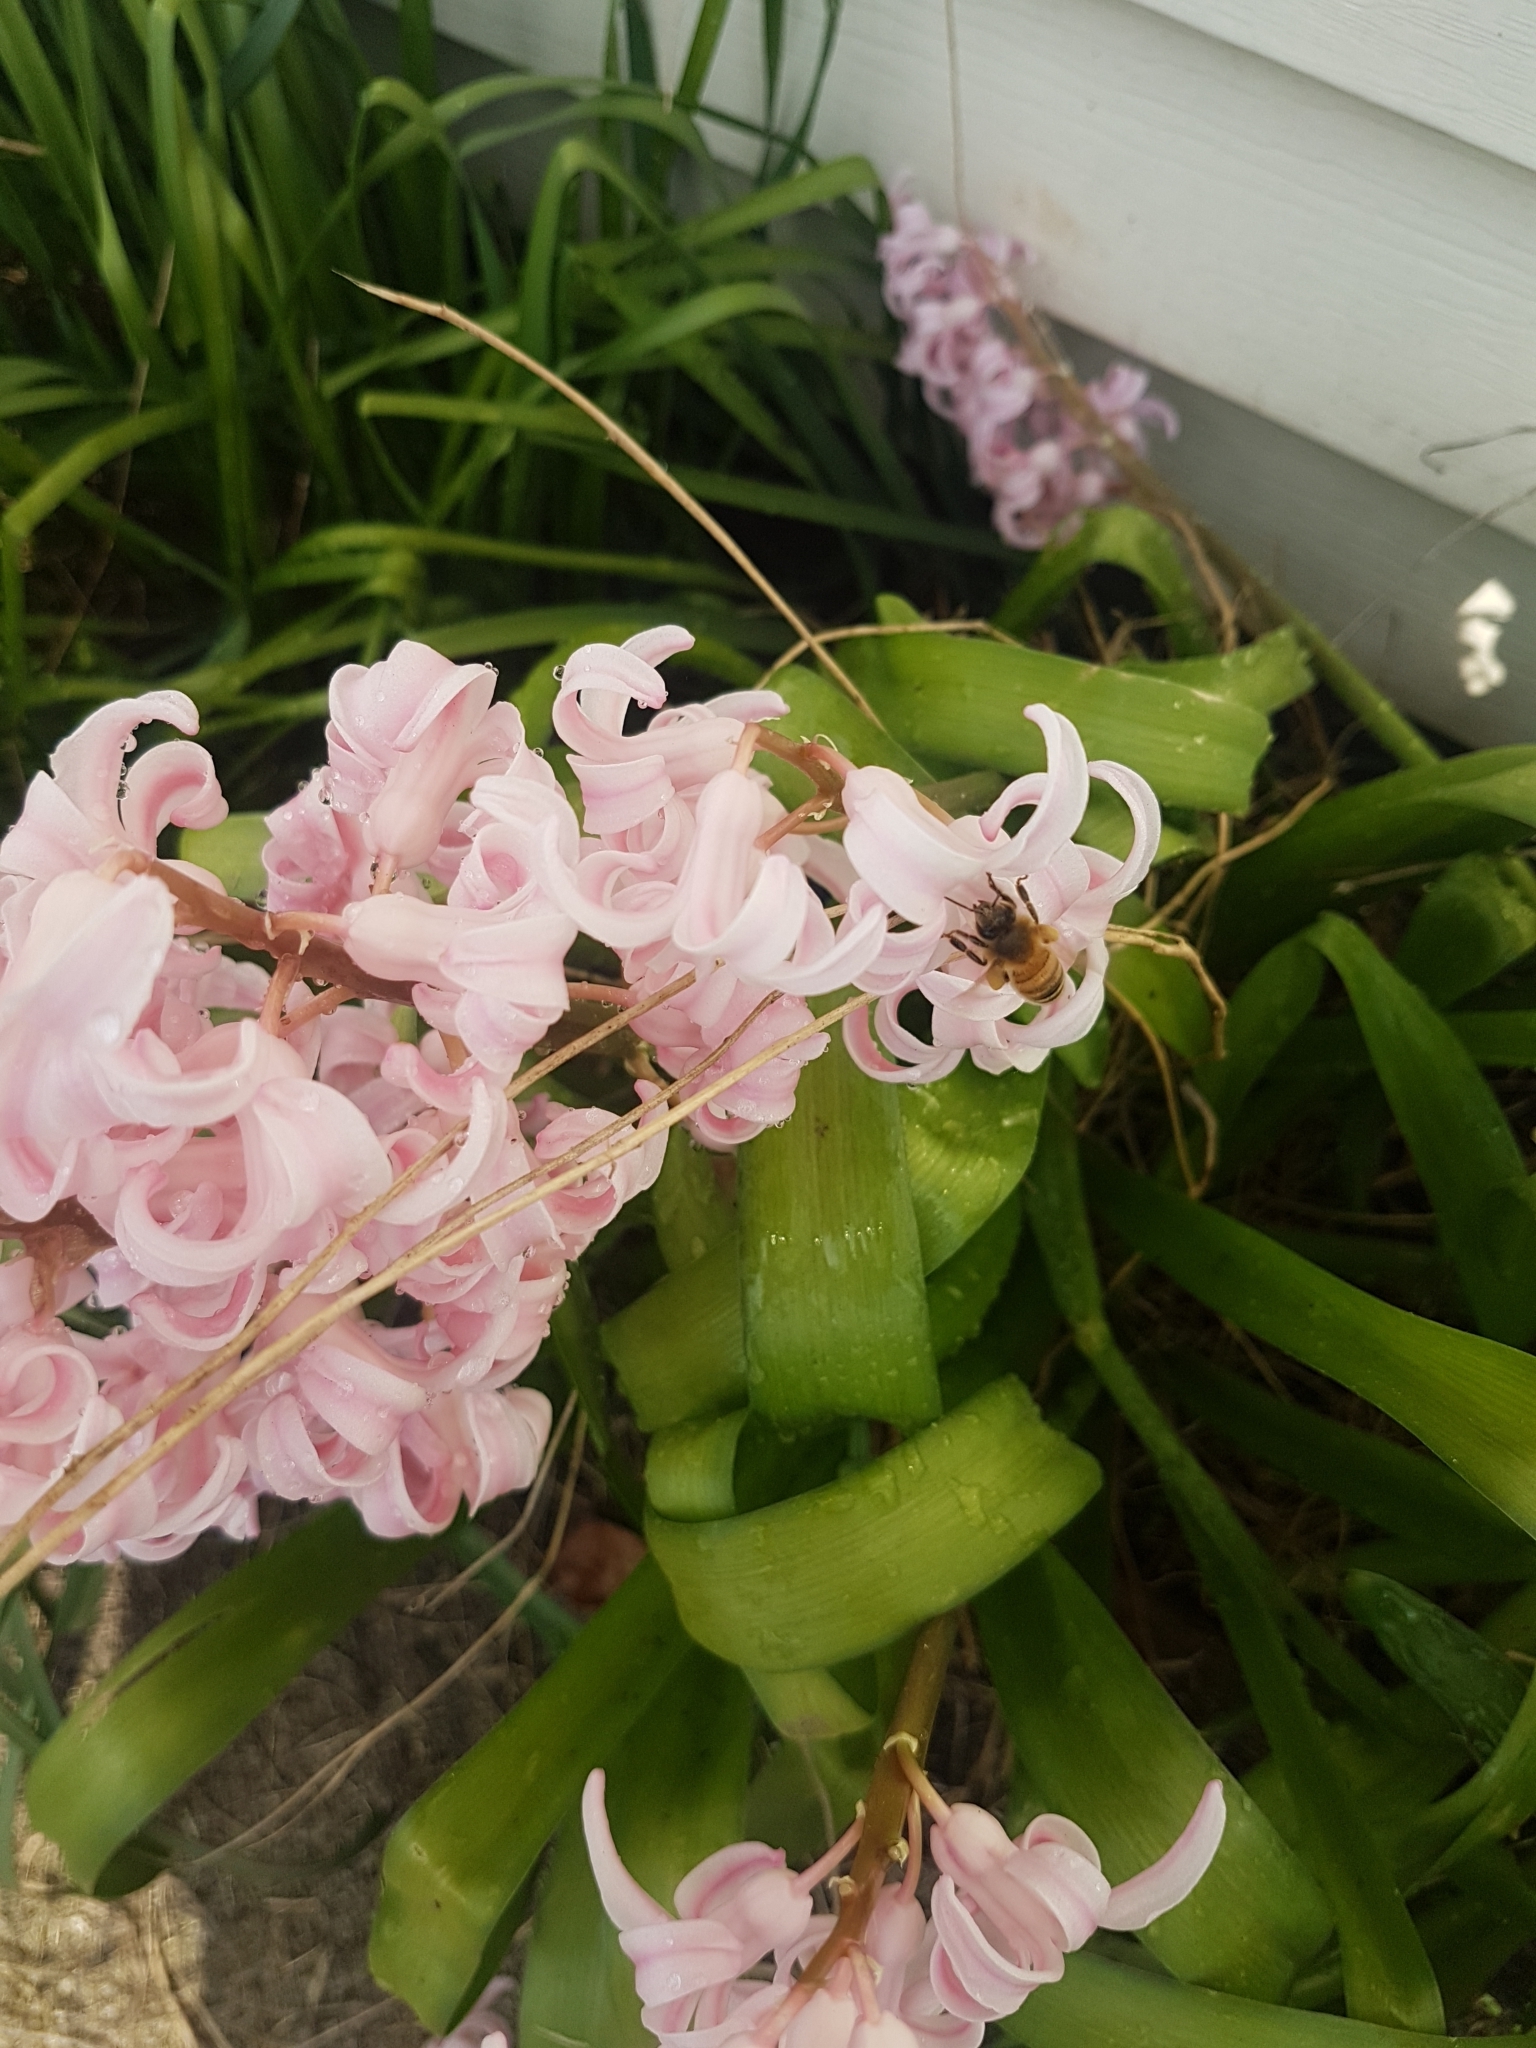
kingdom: Animalia
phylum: Arthropoda
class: Insecta
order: Hymenoptera
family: Apidae
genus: Apis
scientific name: Apis mellifera
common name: Honey bee
